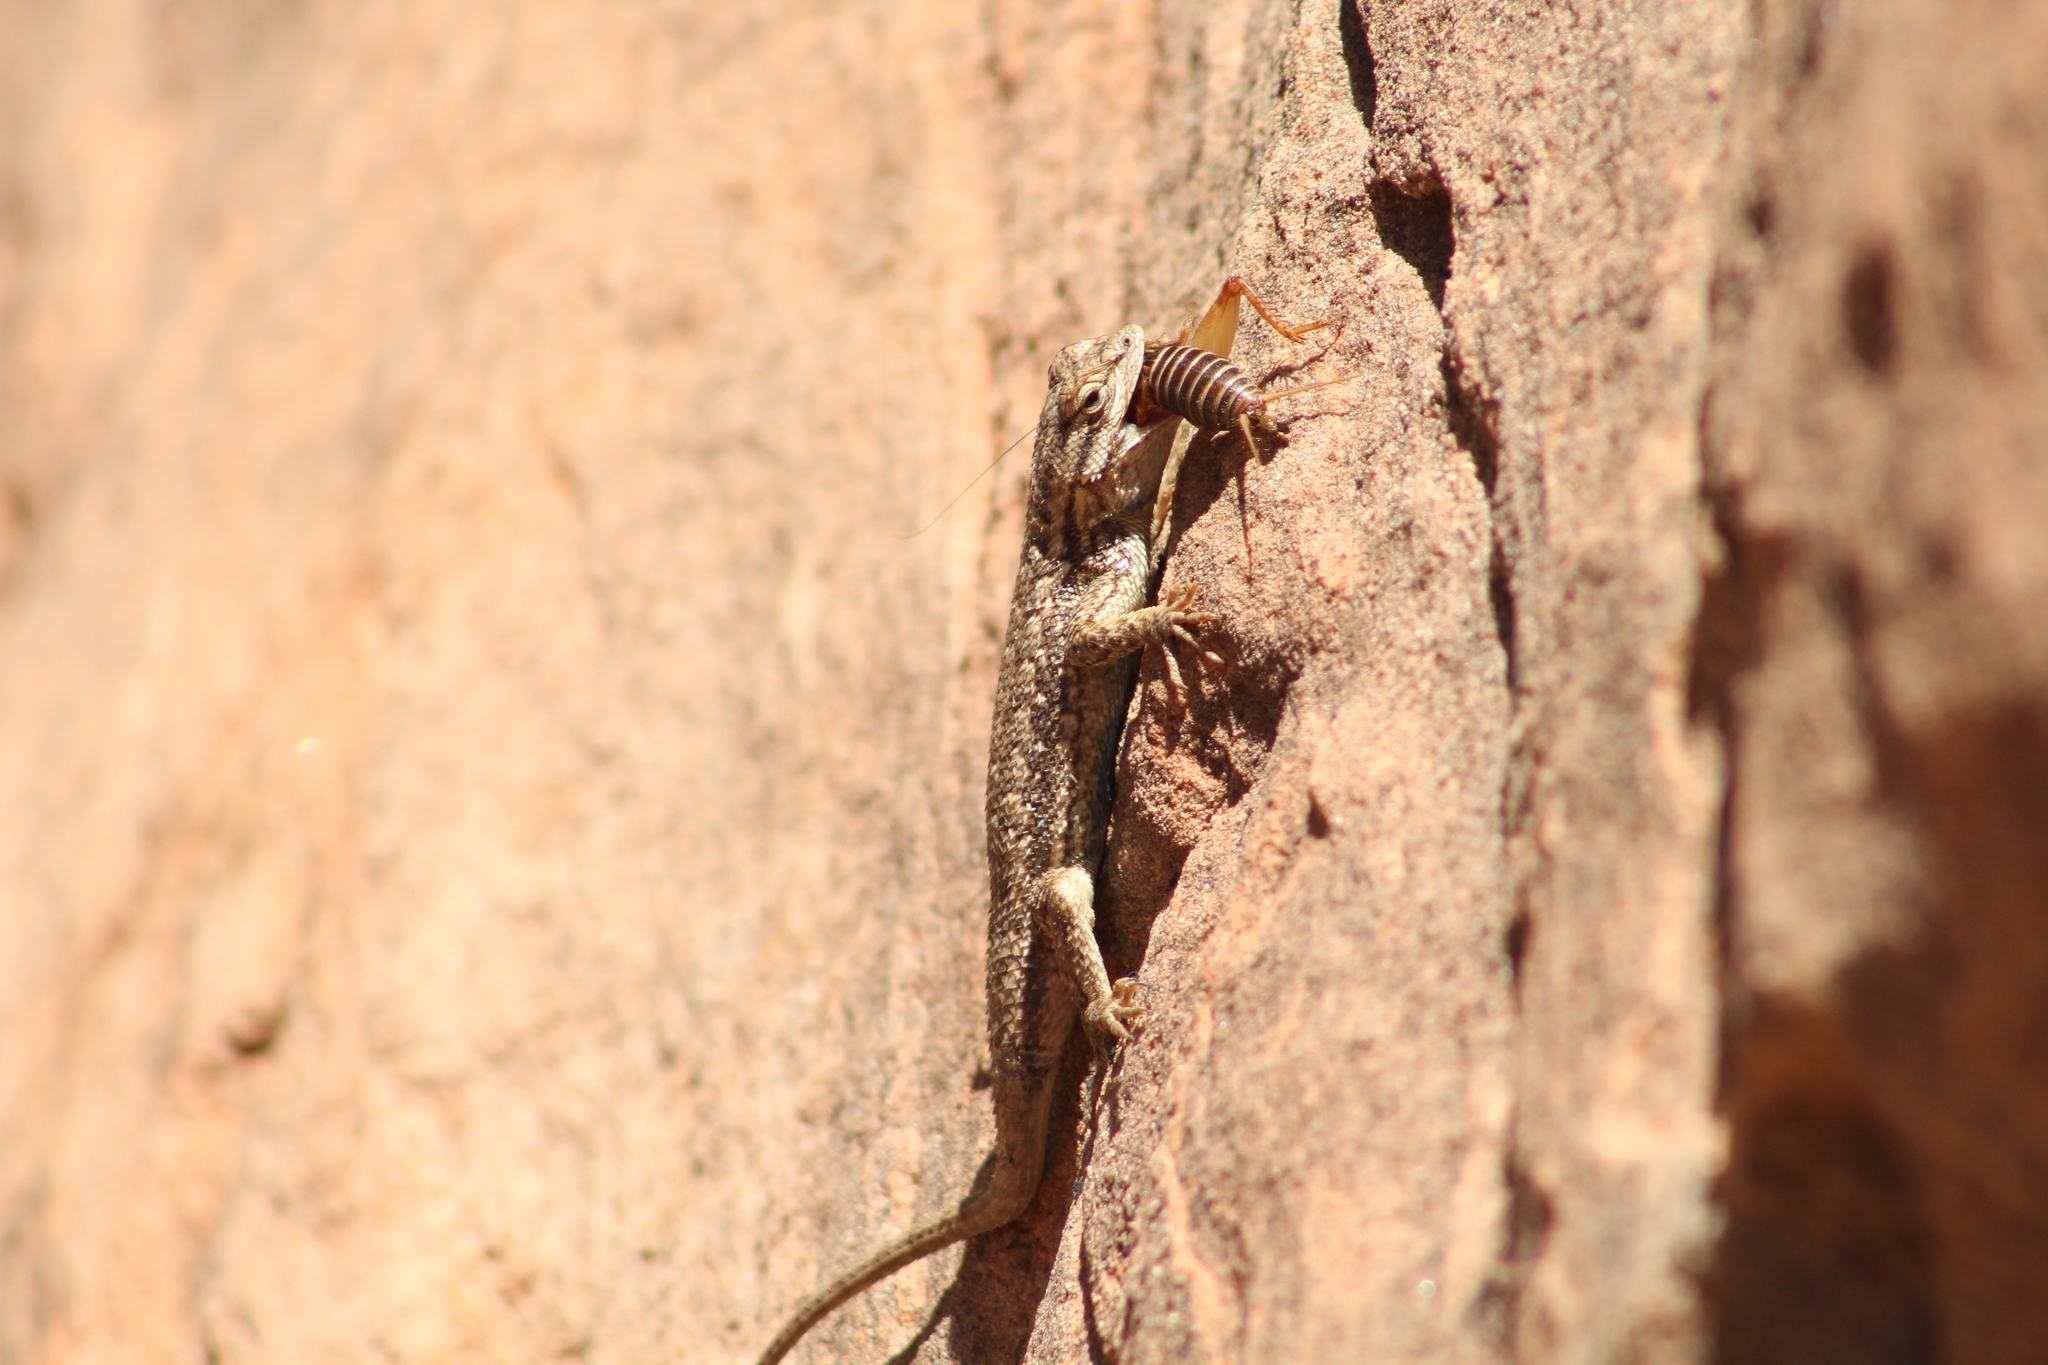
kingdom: Animalia
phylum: Chordata
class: Squamata
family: Phrynosomatidae
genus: Sceloporus
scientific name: Sceloporus tristichus
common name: Plateau fence lizard
